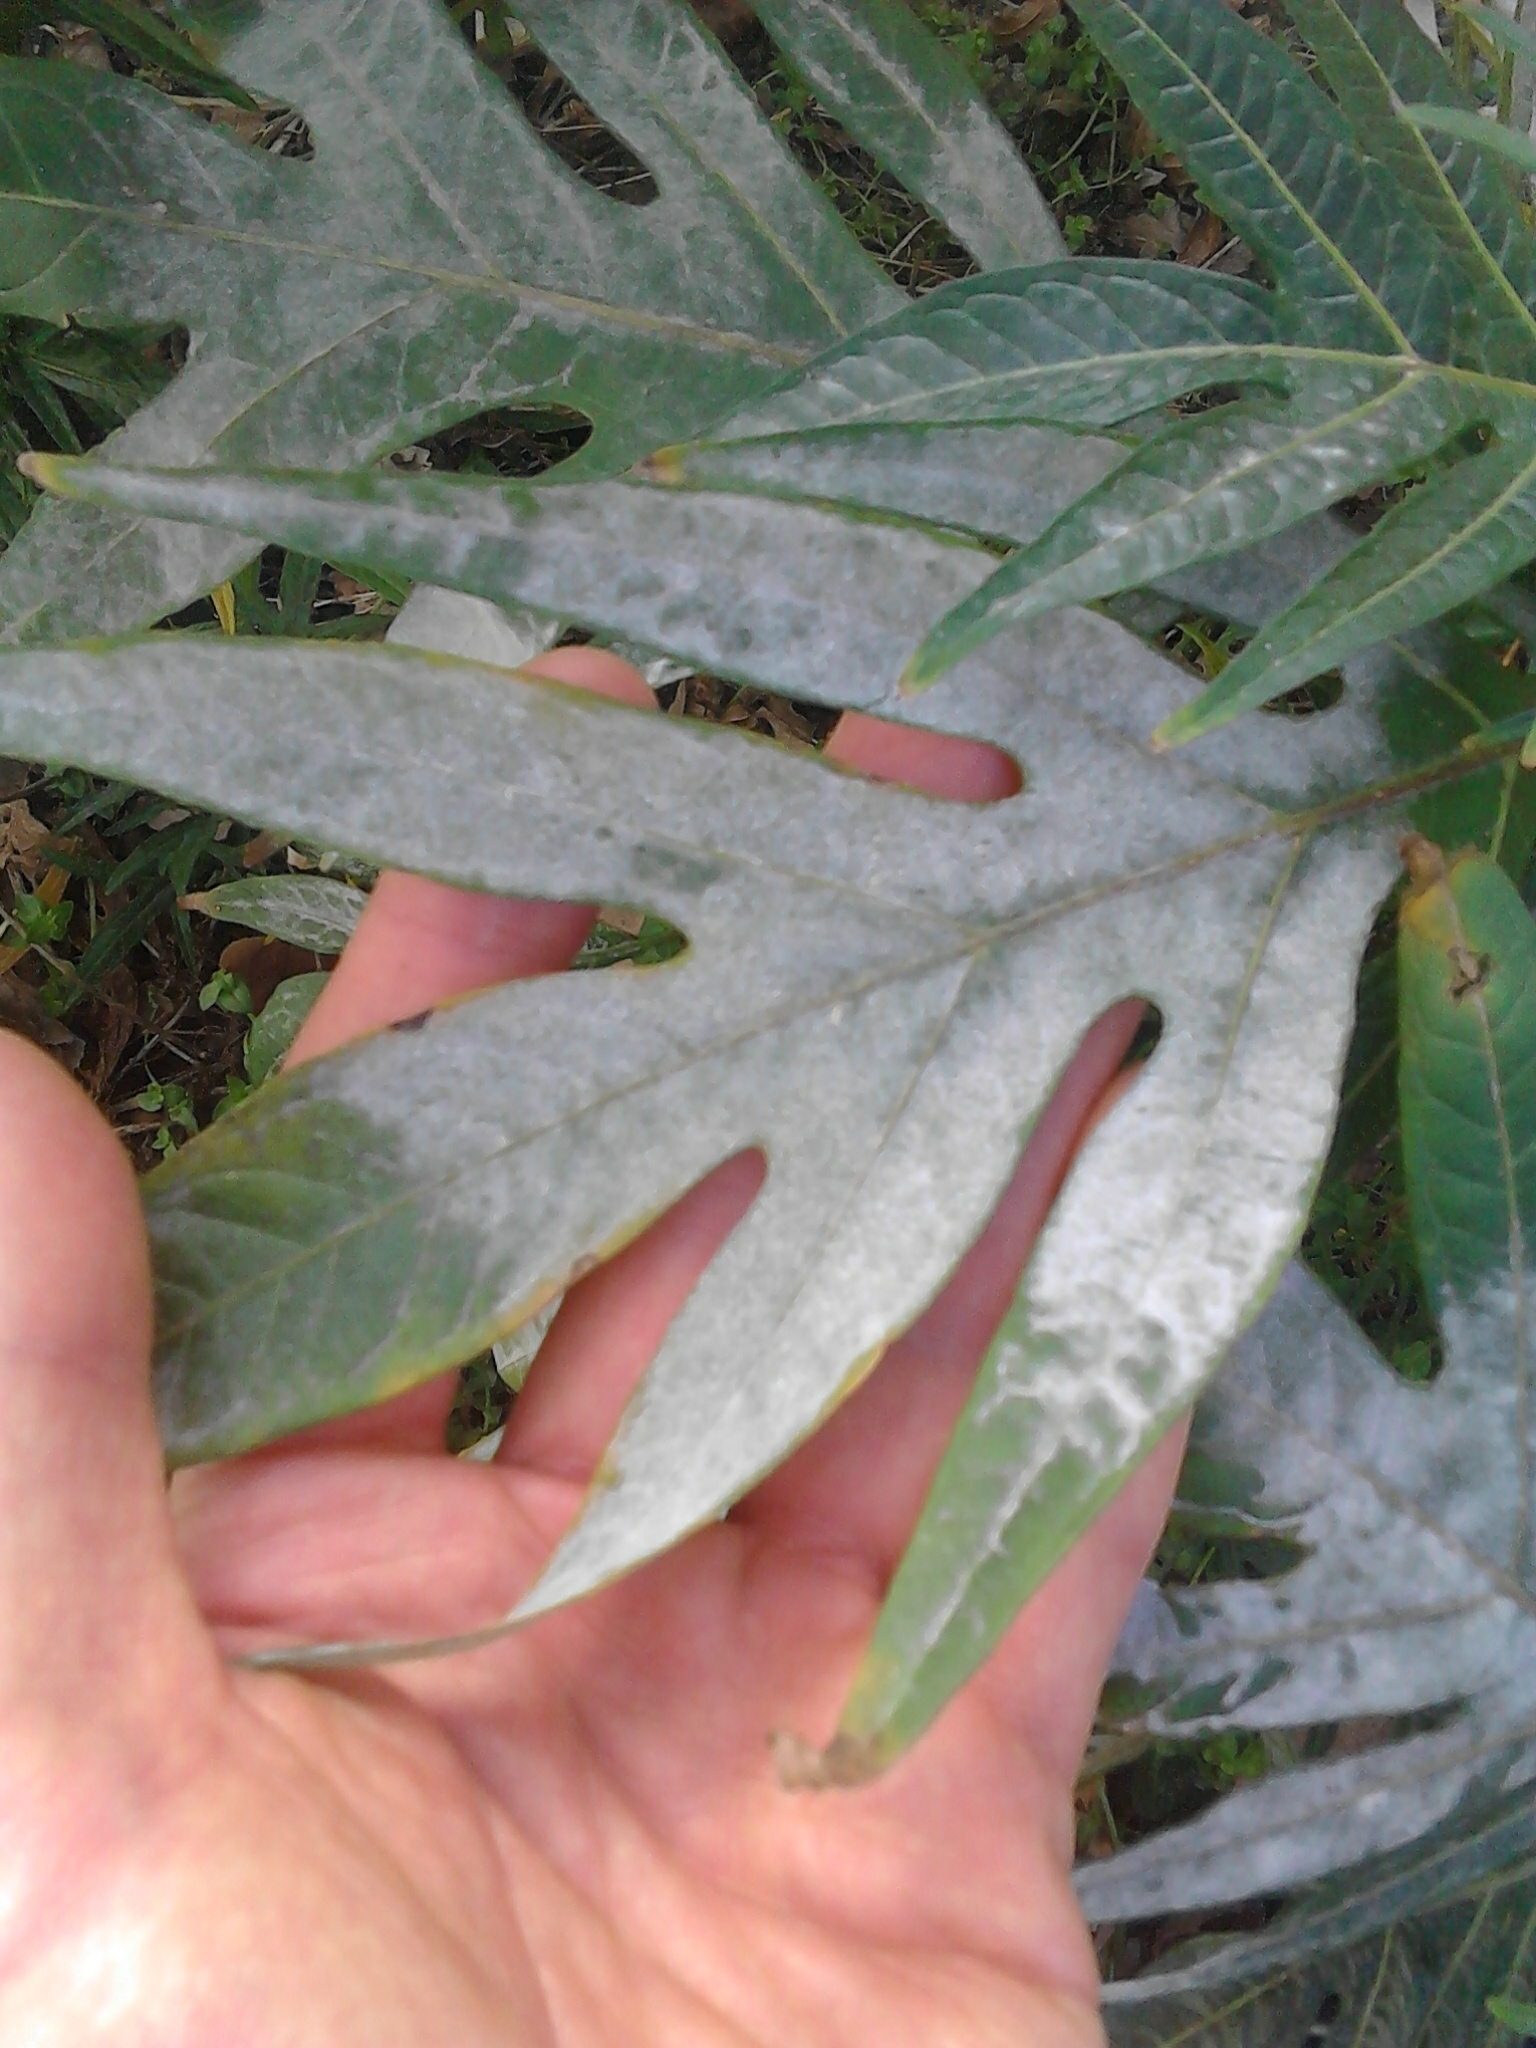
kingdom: Plantae
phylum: Tracheophyta
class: Magnoliopsida
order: Solanales
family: Solanaceae
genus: Solanum
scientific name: Solanum
